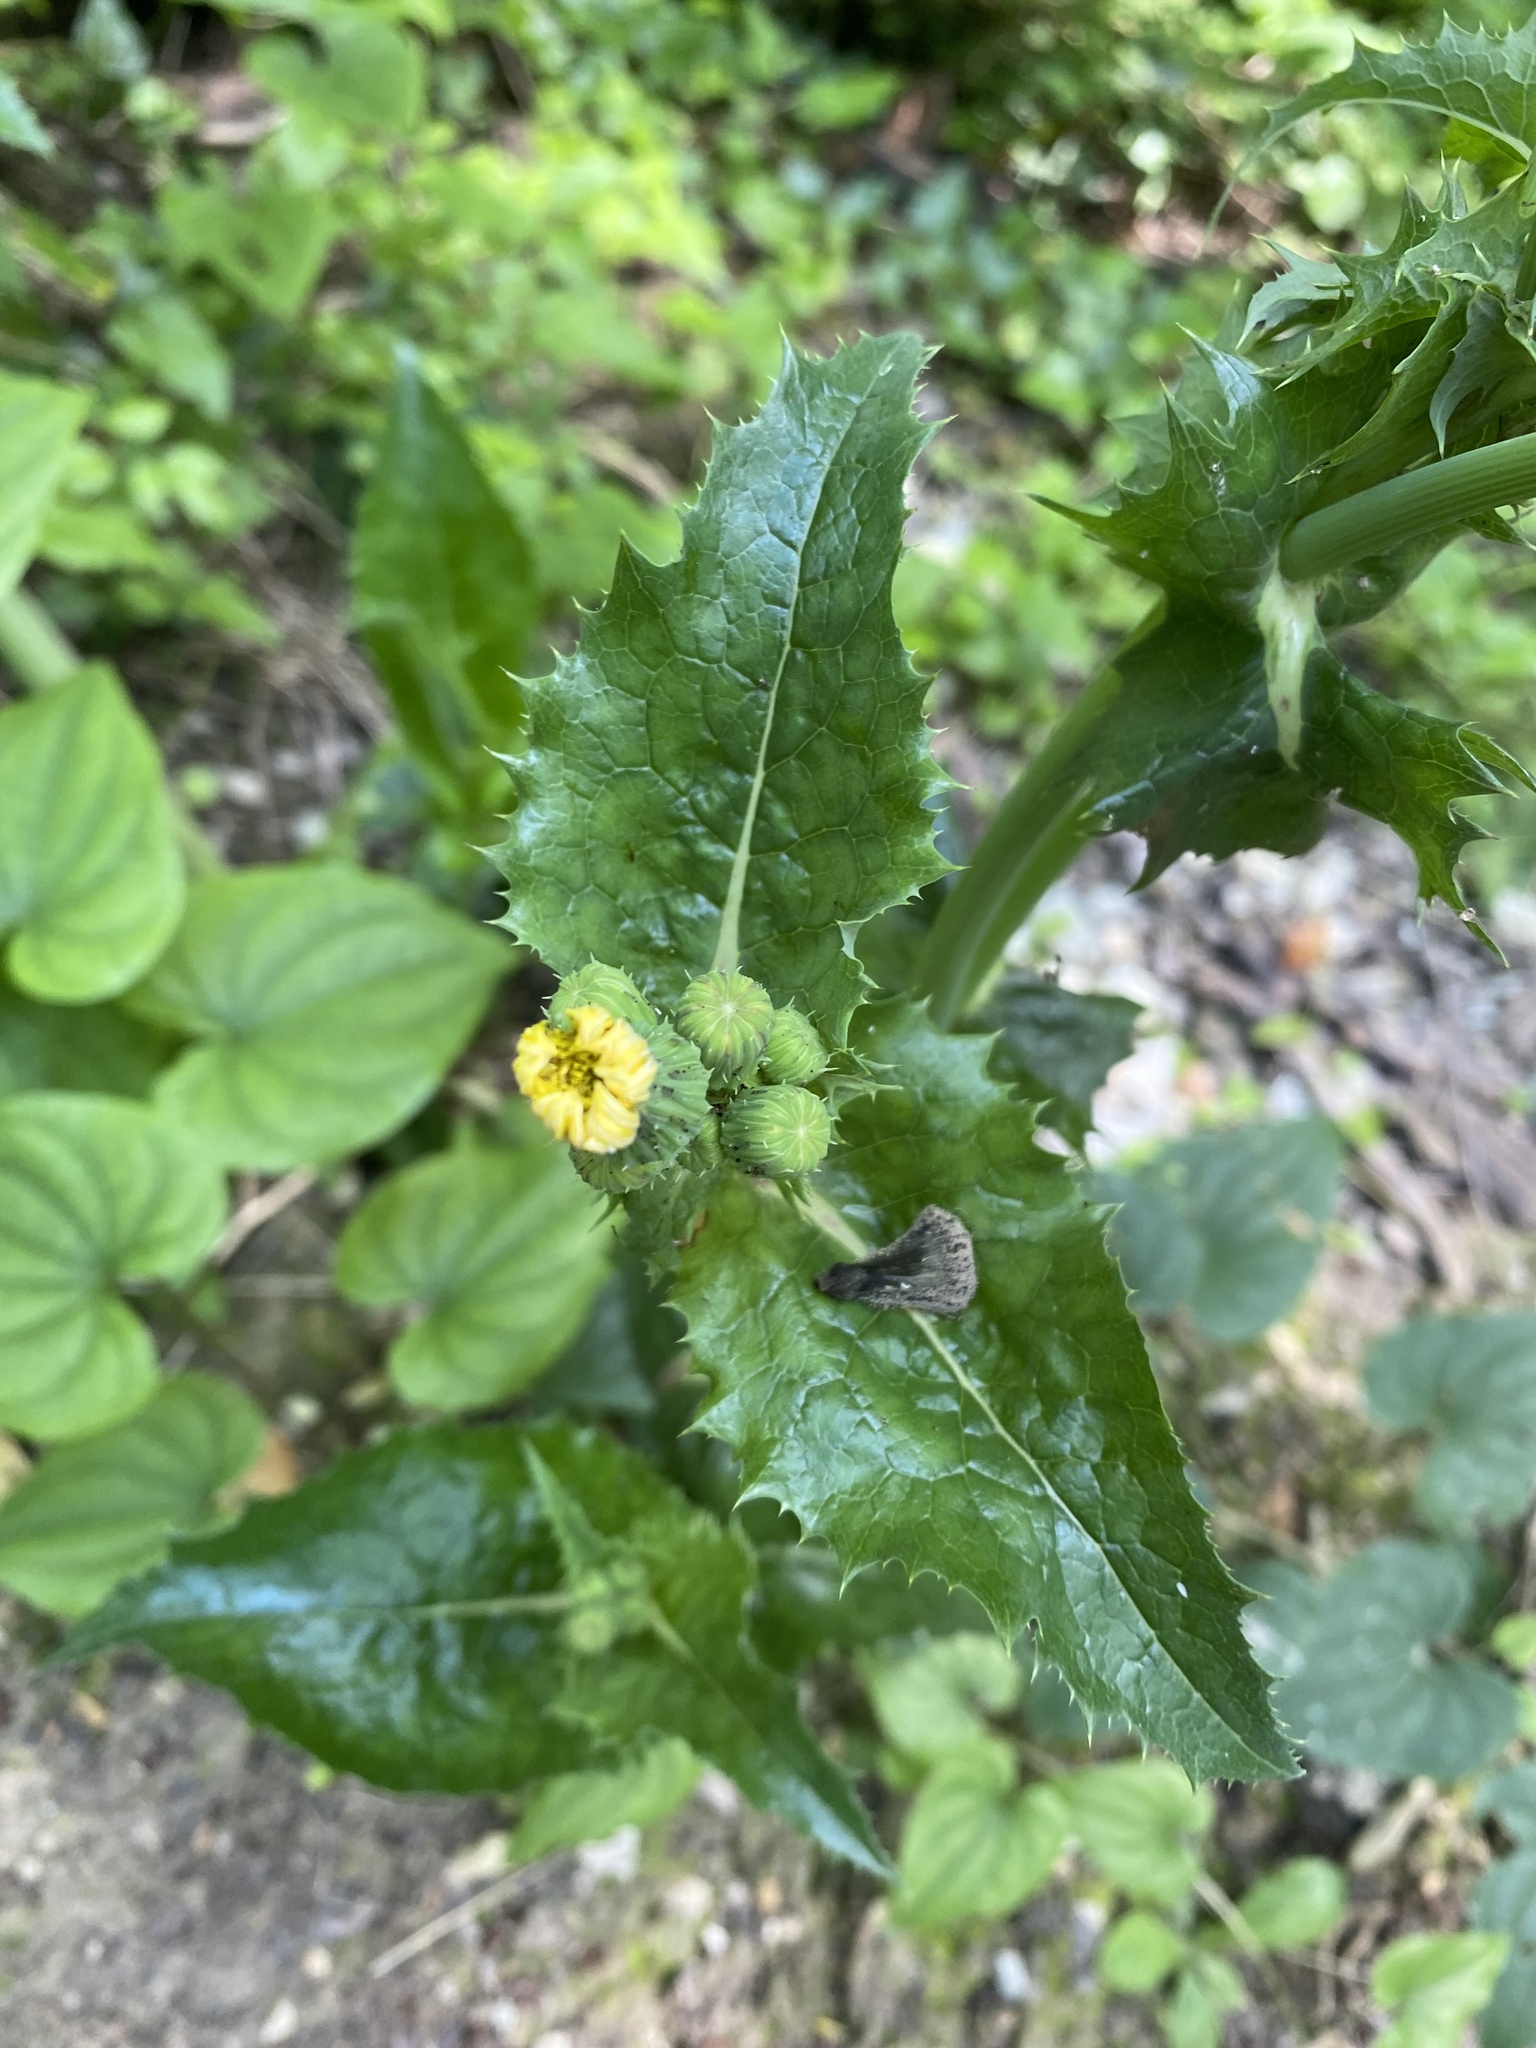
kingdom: Plantae
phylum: Tracheophyta
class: Magnoliopsida
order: Asterales
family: Asteraceae
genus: Sonchus
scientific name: Sonchus asper
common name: Prickly sow-thistle
